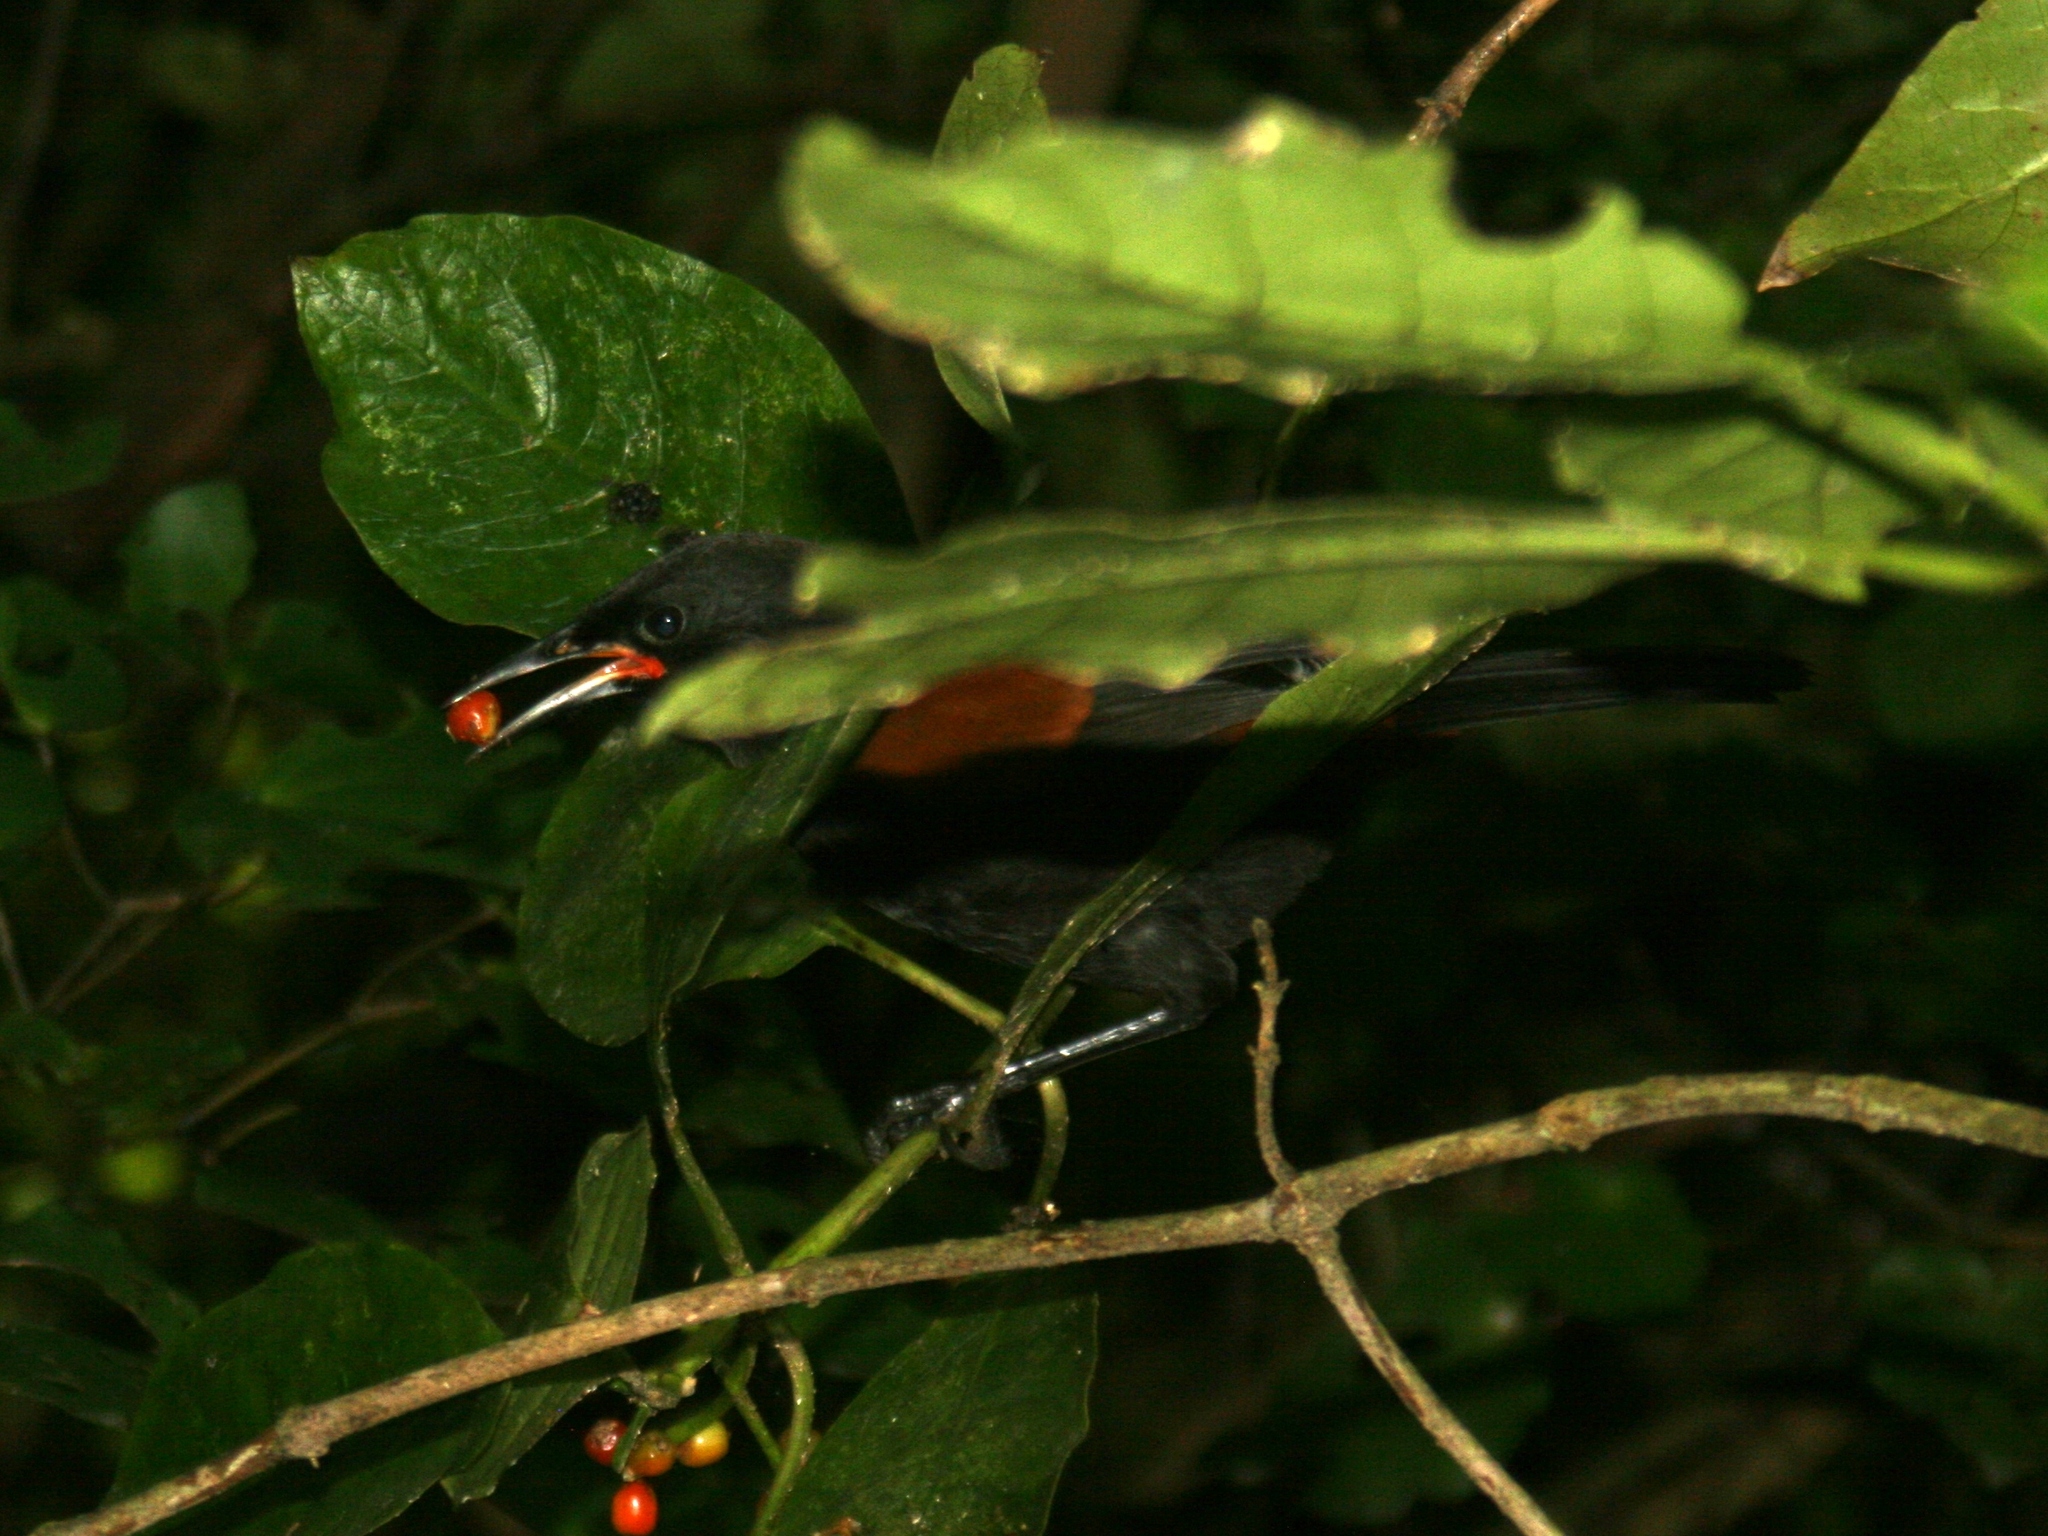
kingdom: Plantae
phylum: Tracheophyta
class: Magnoliopsida
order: Gentianales
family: Rubiaceae
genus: Coprosma
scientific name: Coprosma autumnalis
